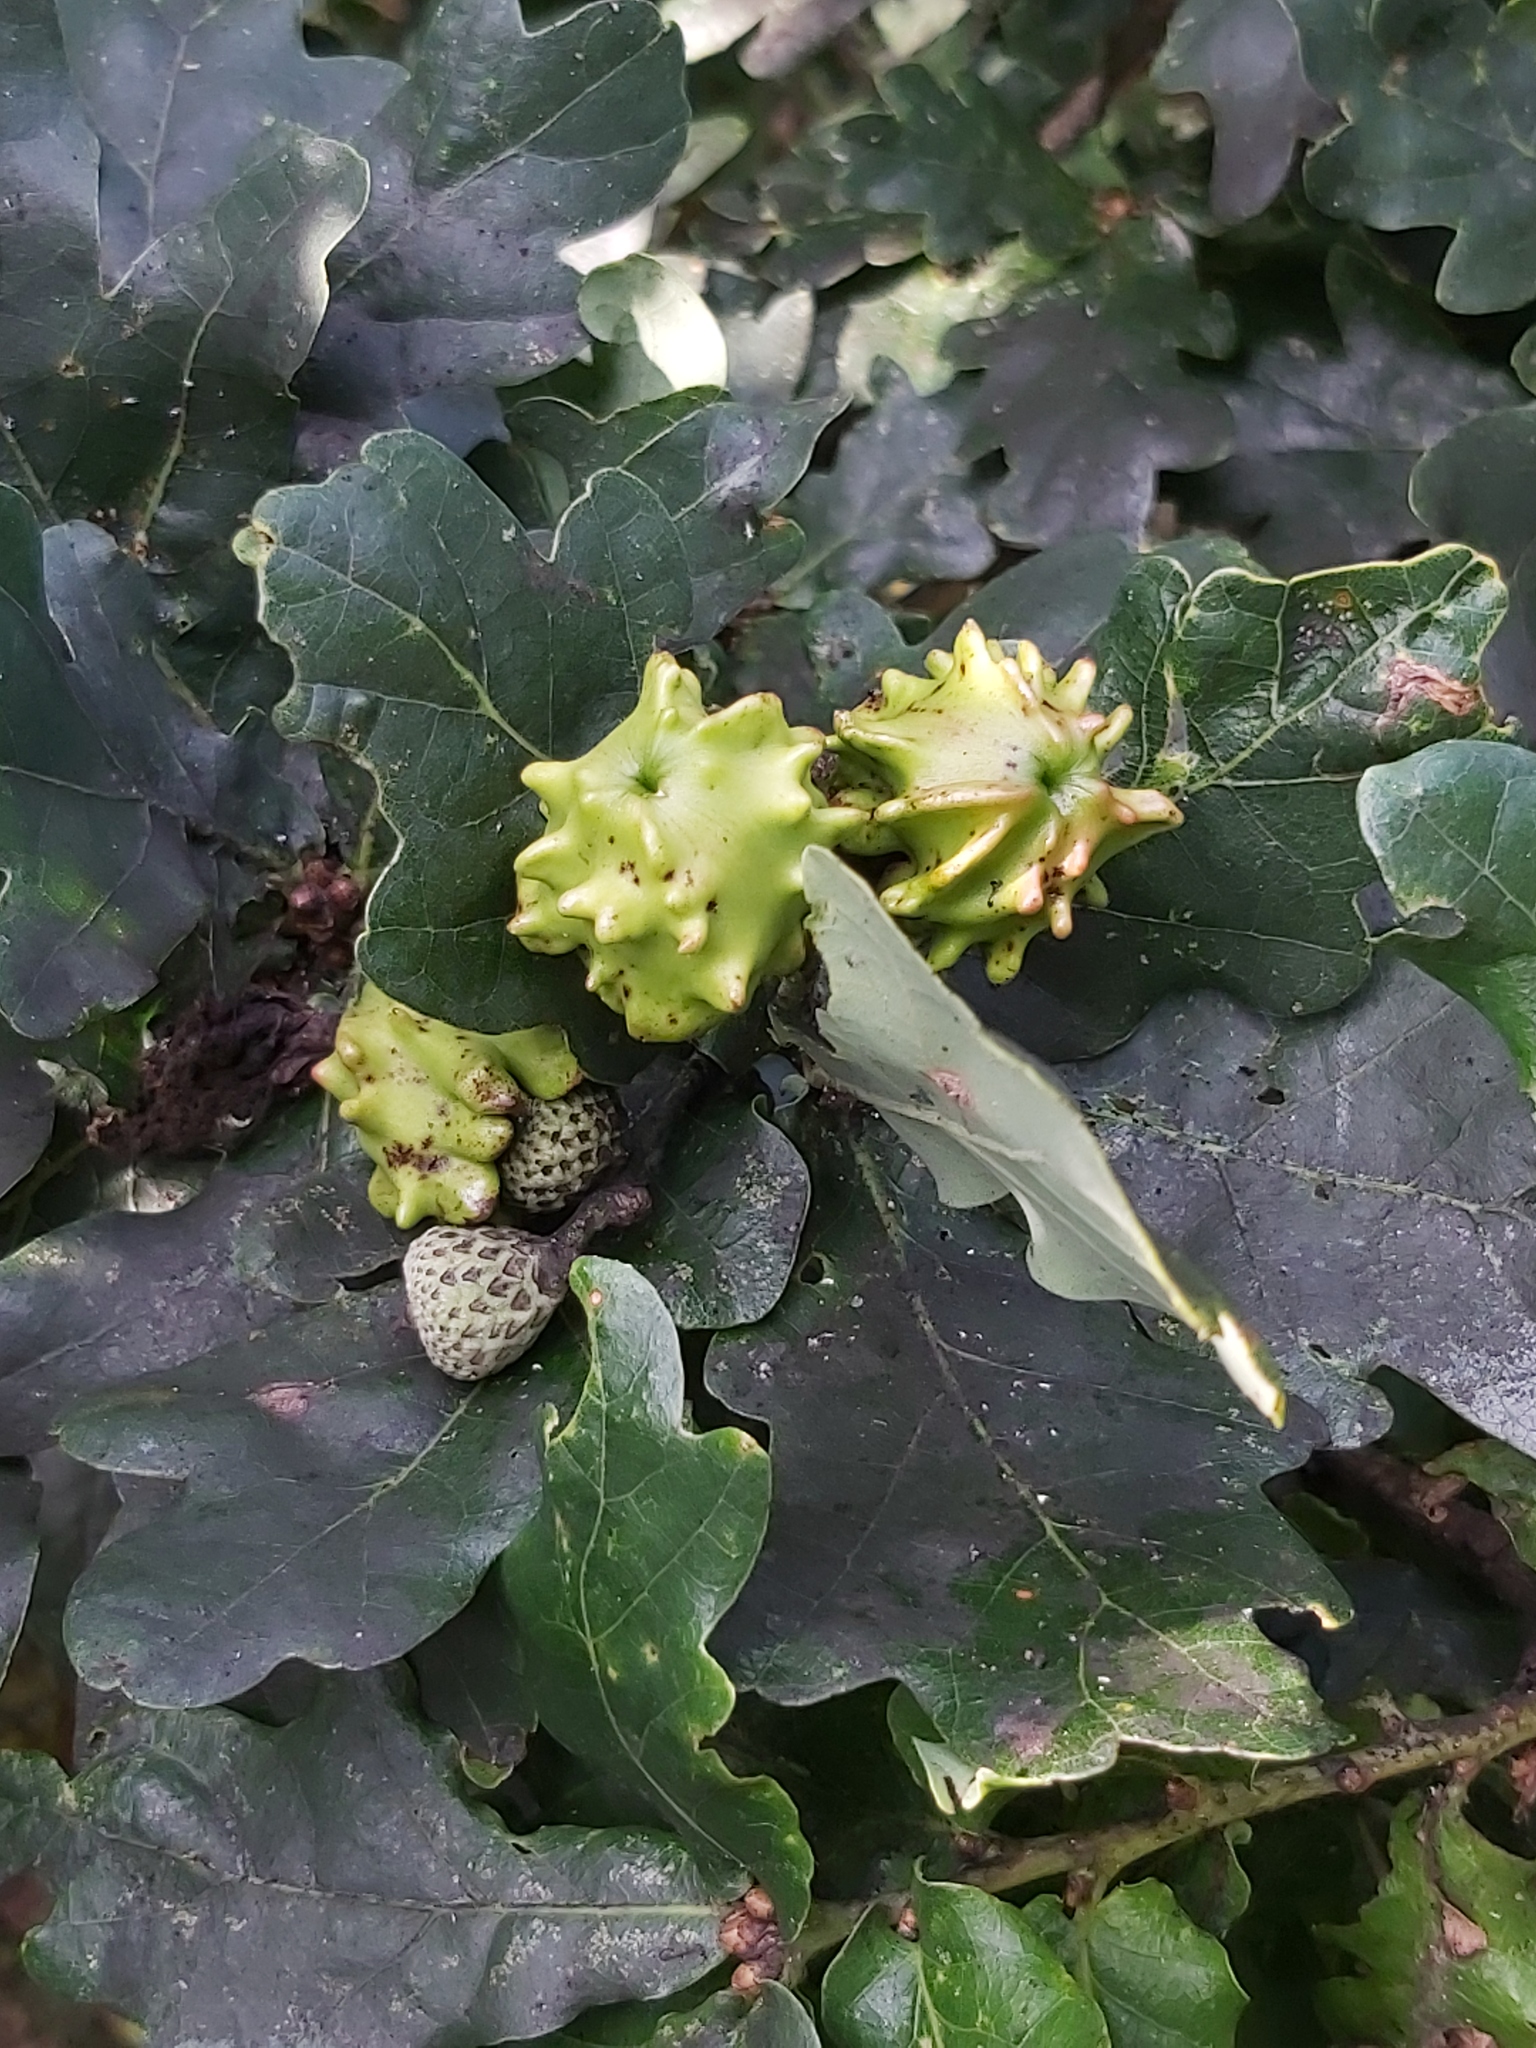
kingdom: Animalia
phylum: Arthropoda
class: Insecta
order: Hymenoptera
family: Cynipidae
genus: Andricus
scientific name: Andricus quercuscalicis
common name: Knopper gall
